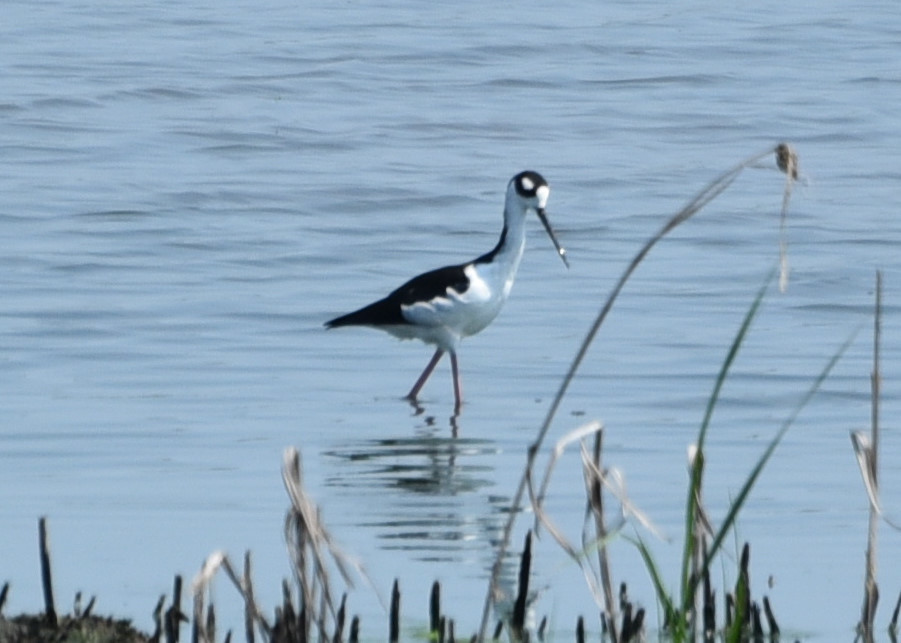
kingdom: Animalia
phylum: Chordata
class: Aves
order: Charadriiformes
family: Recurvirostridae
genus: Himantopus
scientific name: Himantopus mexicanus
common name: Black-necked stilt
